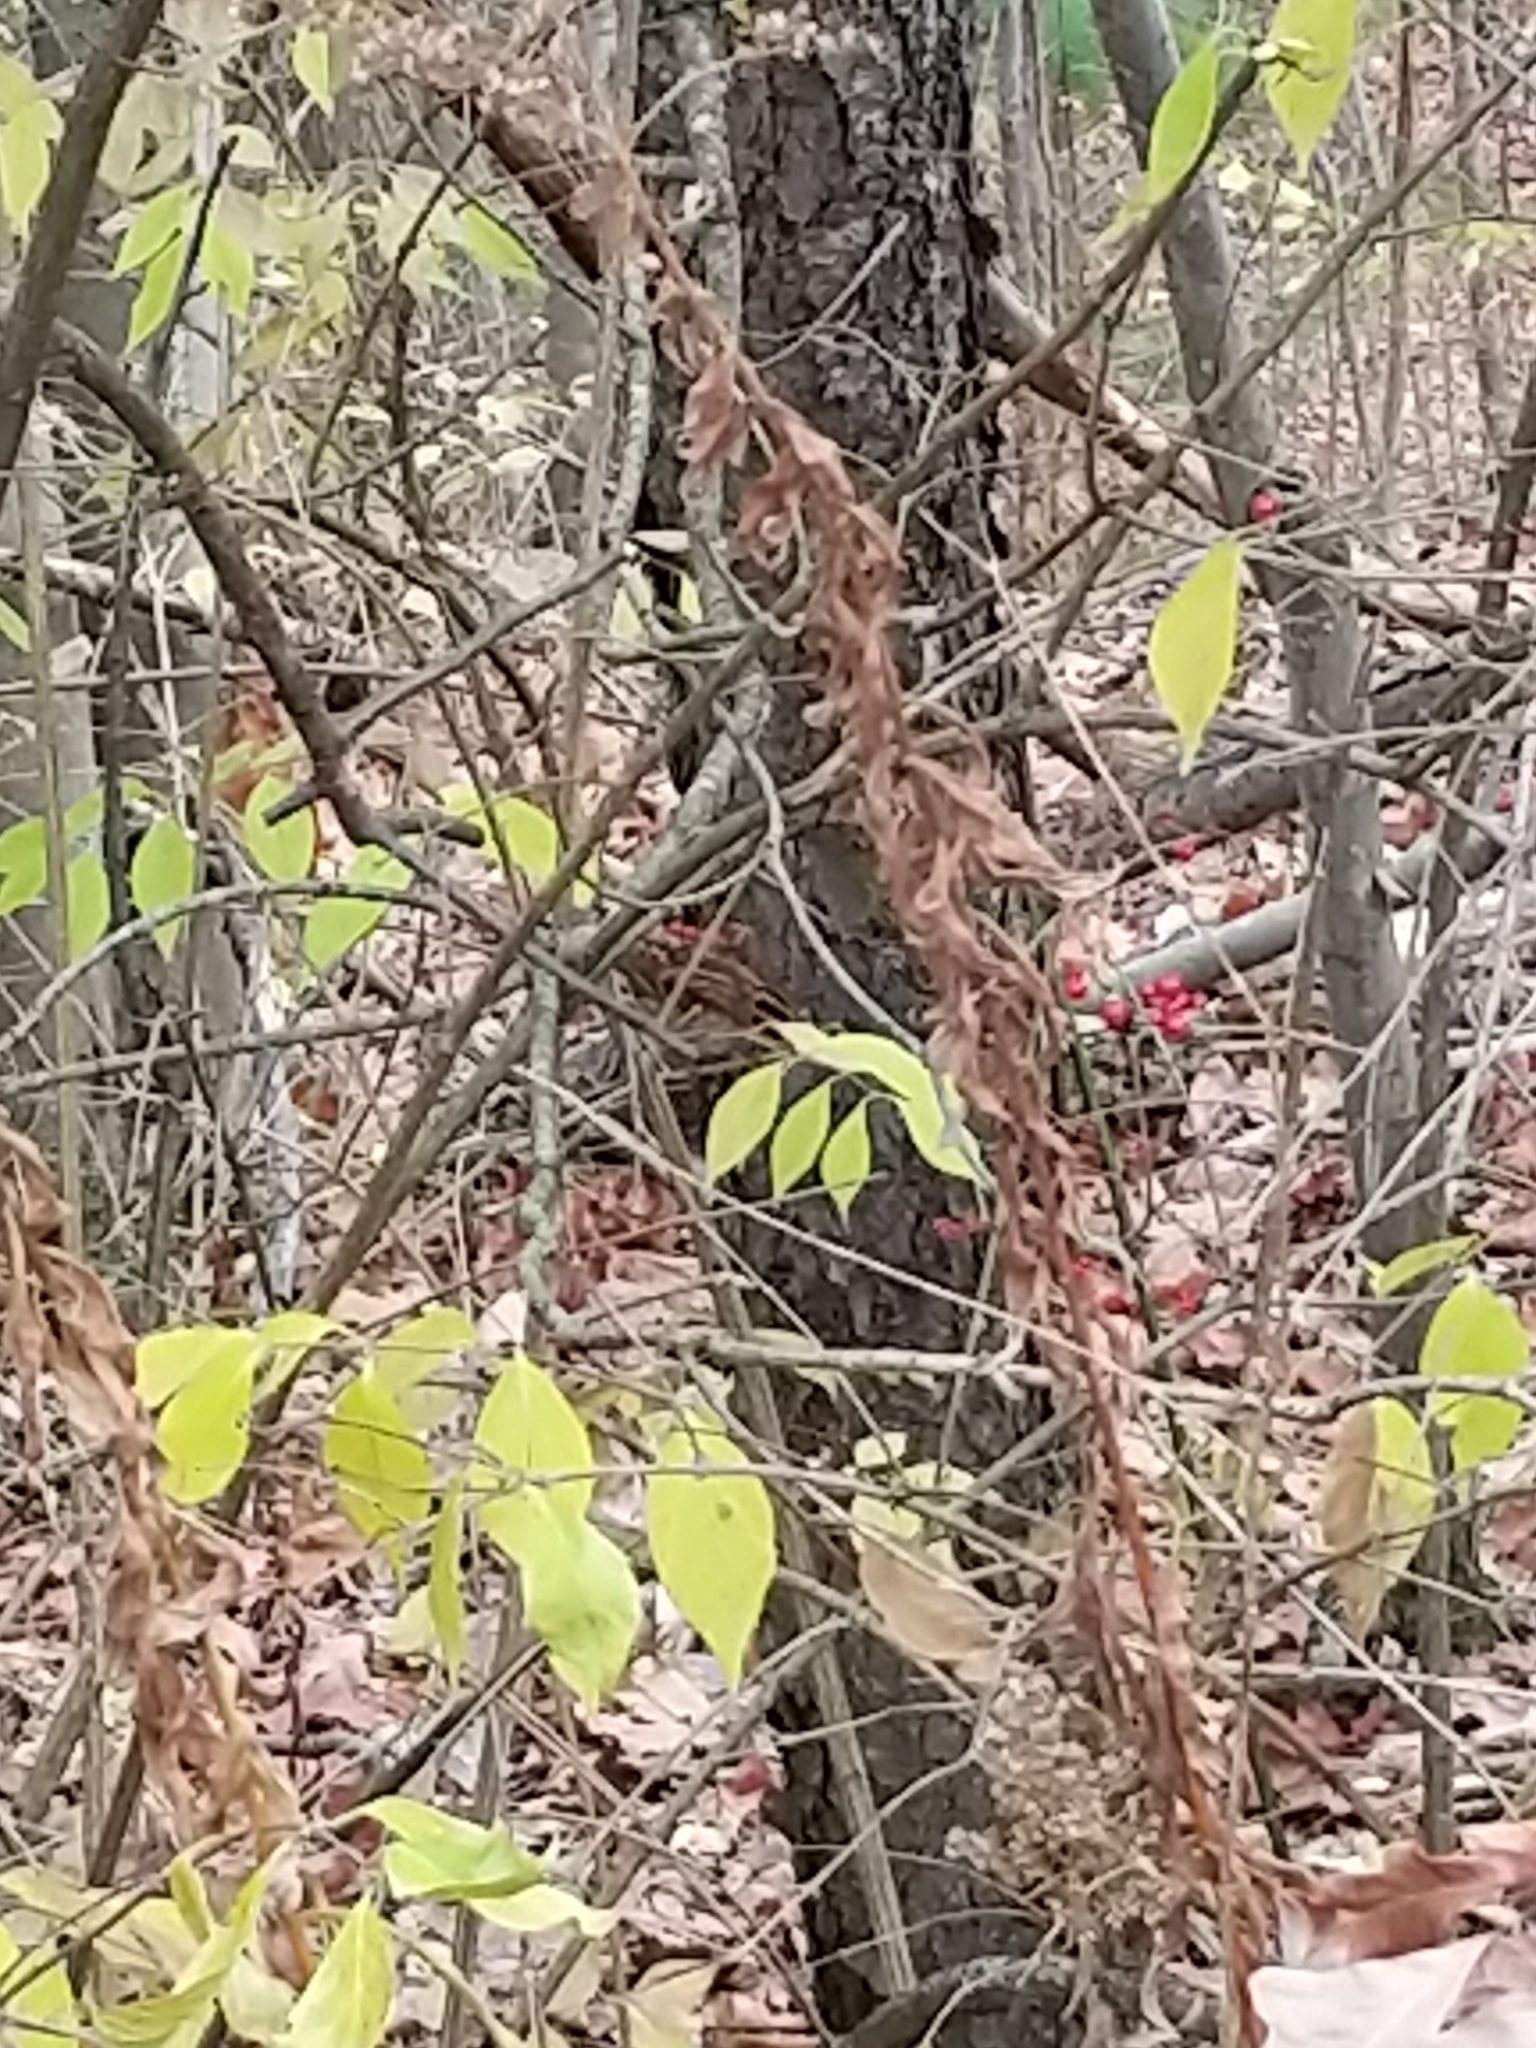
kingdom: Animalia
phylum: Chordata
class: Aves
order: Passeriformes
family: Passerellidae
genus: Zonotrichia
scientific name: Zonotrichia albicollis
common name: White-throated sparrow
